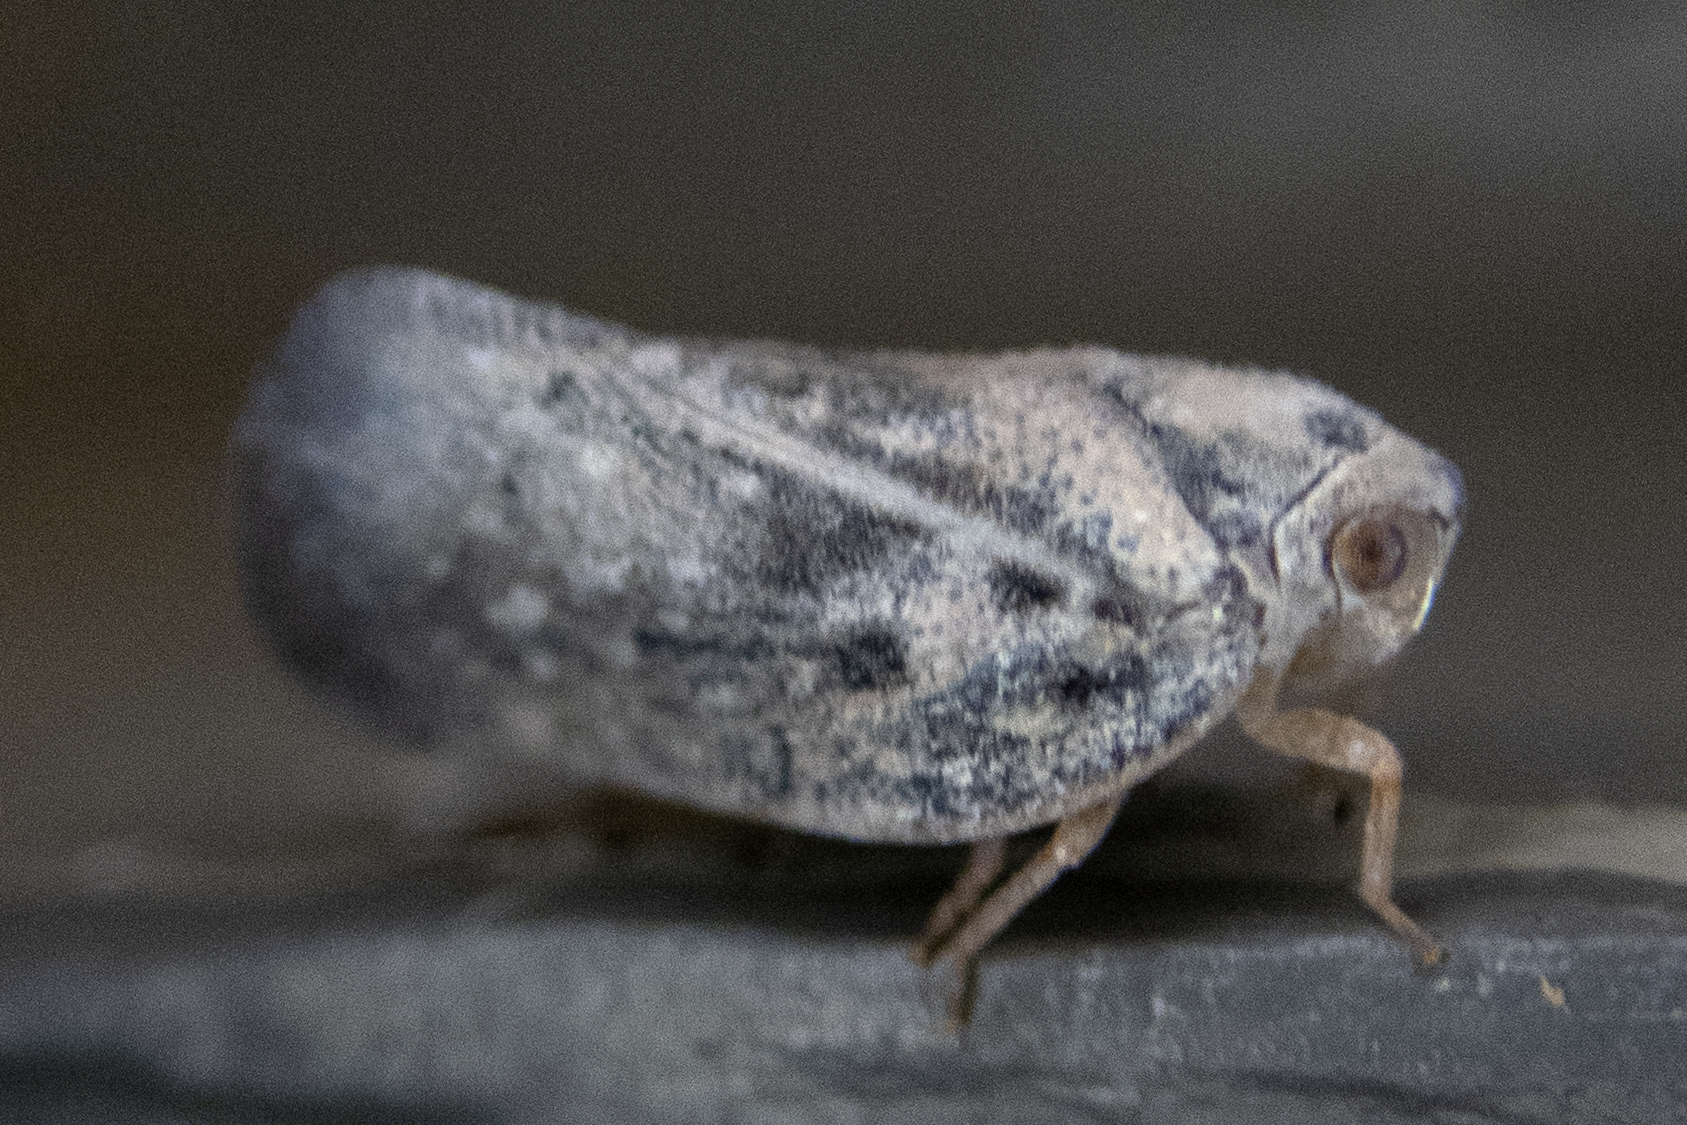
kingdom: Animalia
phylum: Arthropoda
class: Insecta
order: Hemiptera
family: Flatidae
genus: Metcalfa
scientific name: Metcalfa pruinosa
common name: Citrus flatid planthopper
